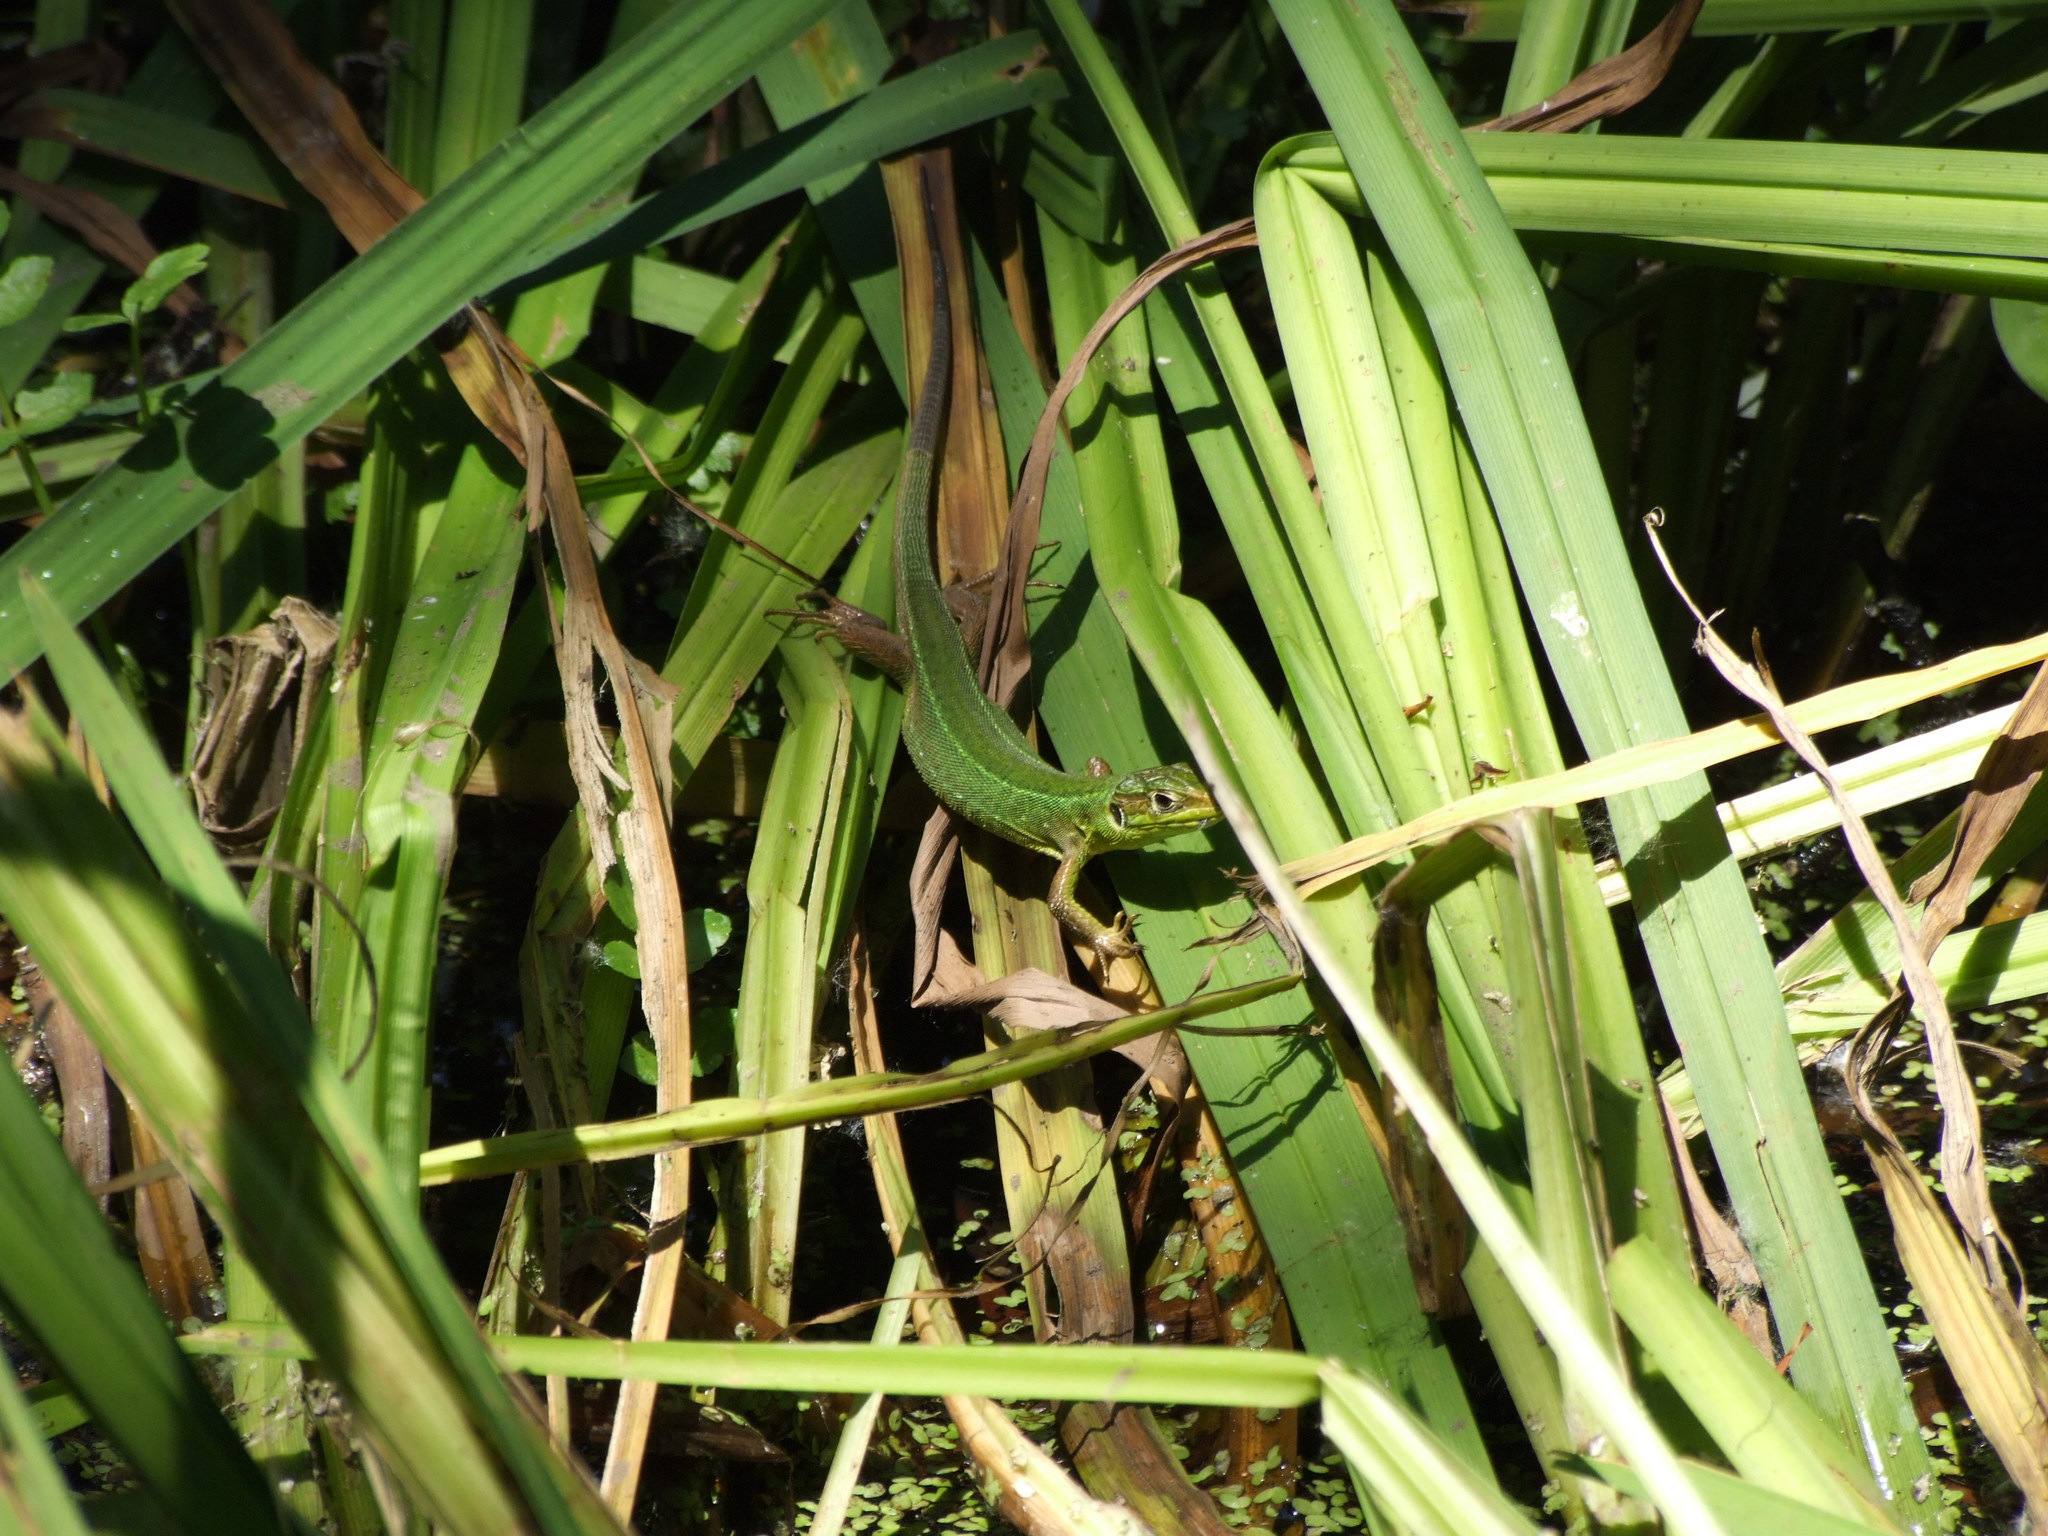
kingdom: Animalia
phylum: Chordata
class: Squamata
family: Lacertidae
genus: Lacerta
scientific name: Lacerta bilineata
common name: Western green lizard
